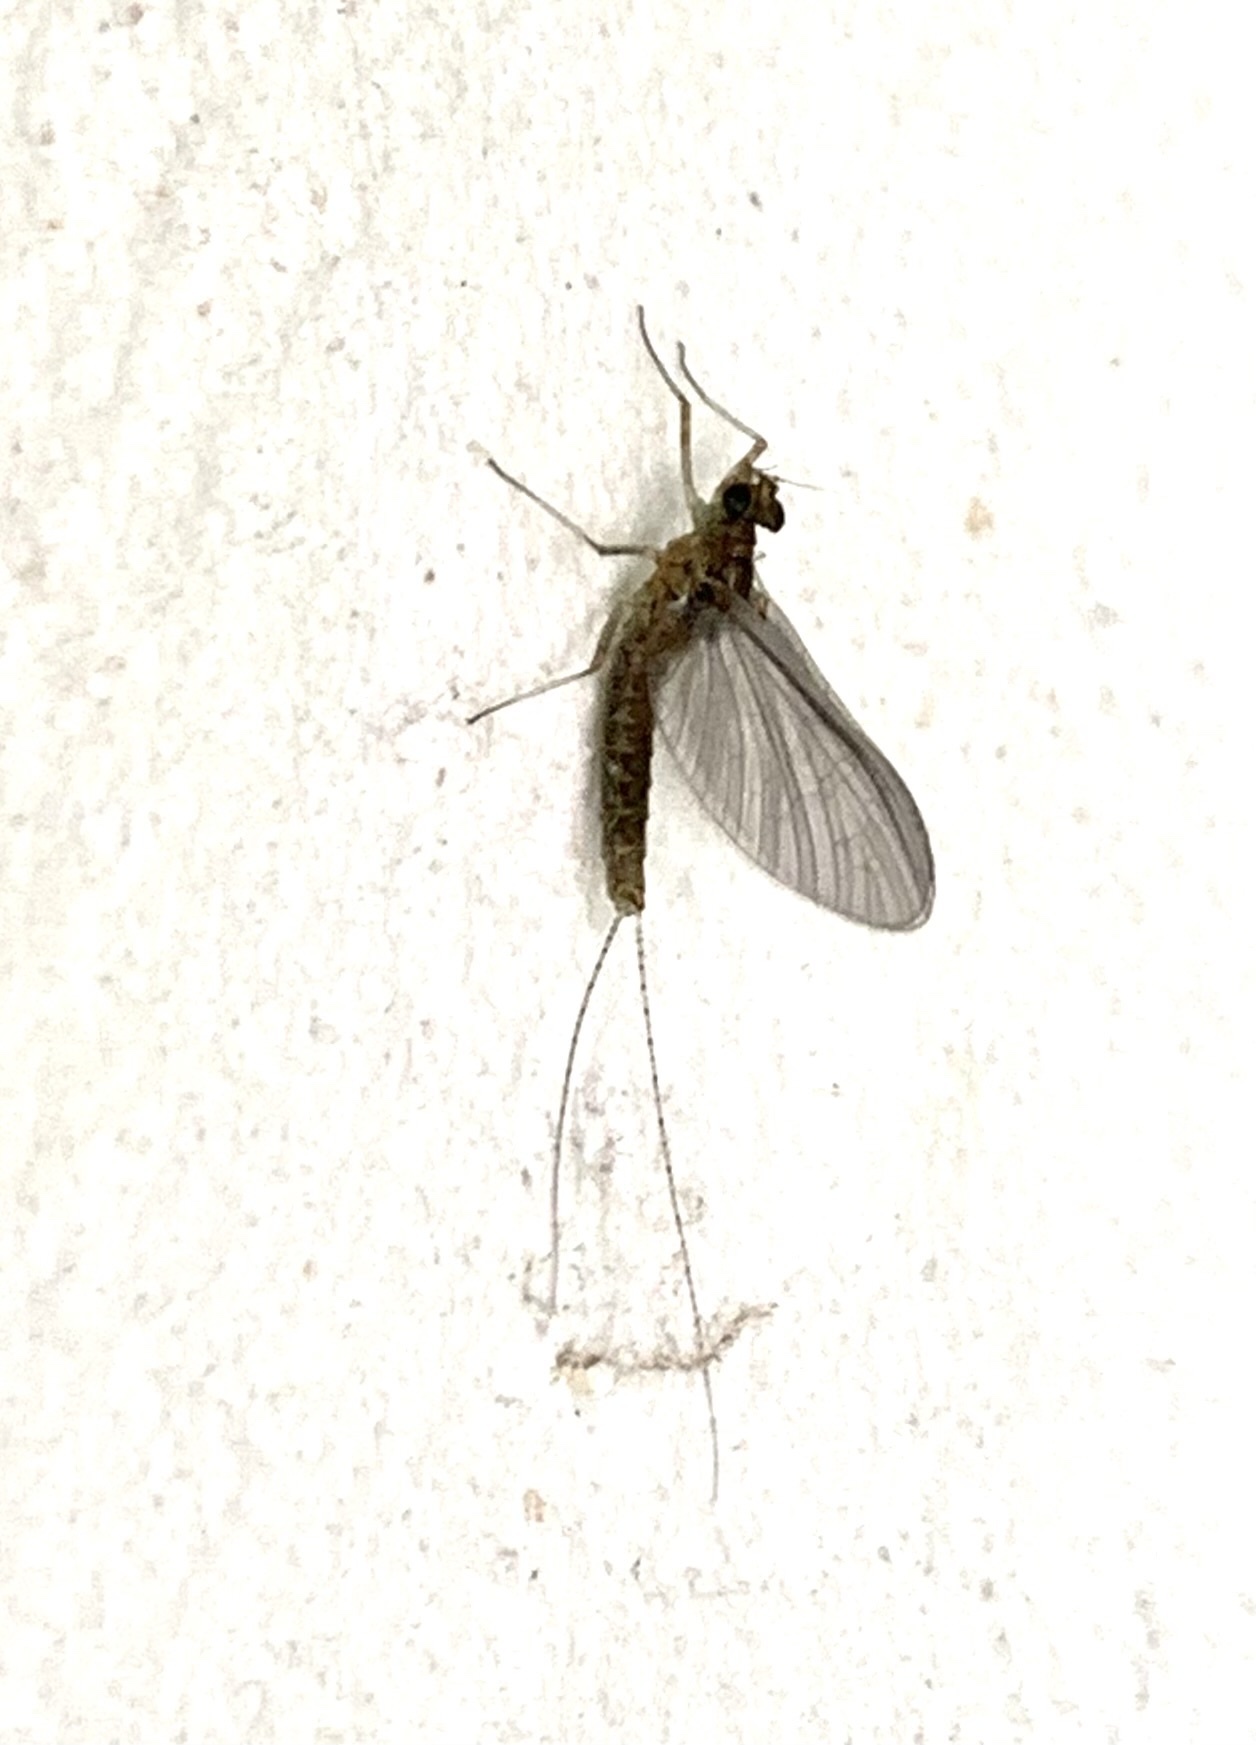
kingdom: Animalia
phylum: Arthropoda
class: Insecta
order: Ephemeroptera
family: Baetidae
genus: Cloeon
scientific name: Cloeon dipterum
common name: Pond olive
